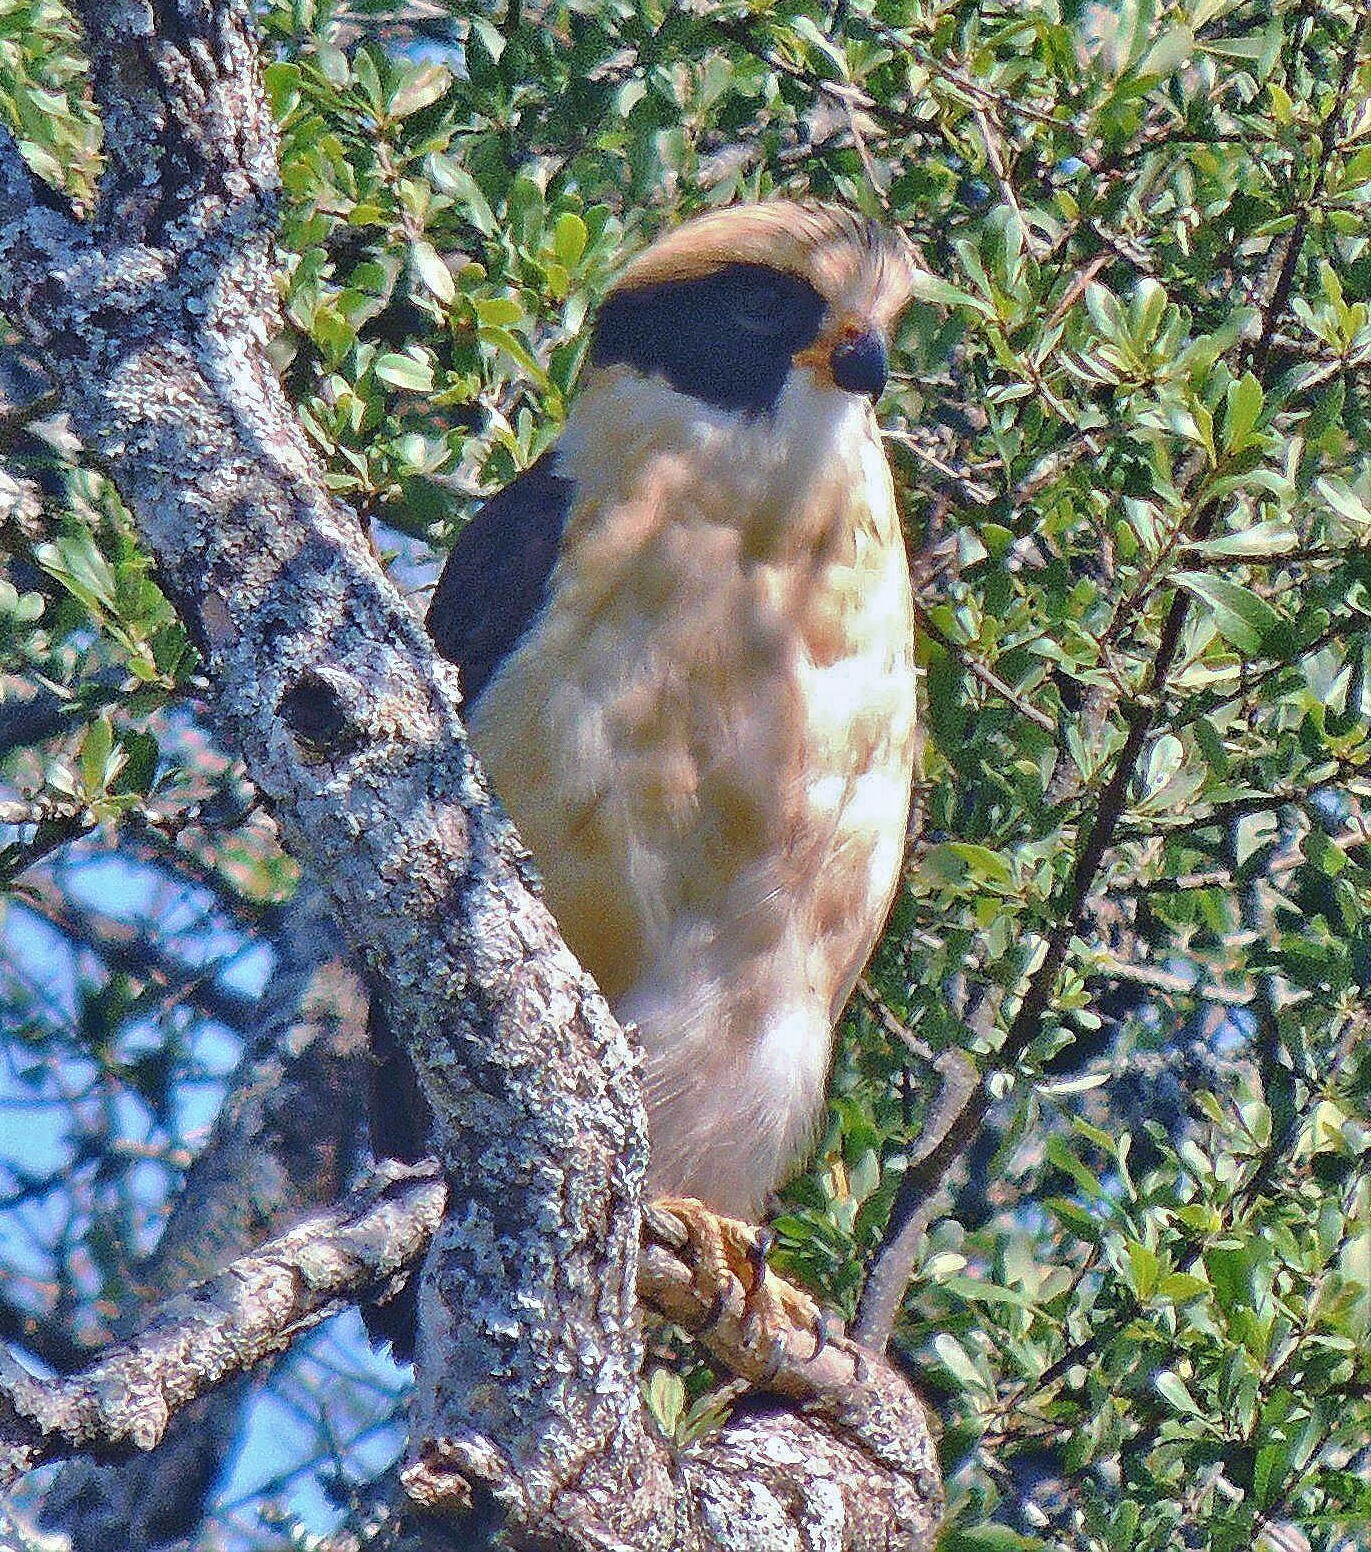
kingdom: Animalia
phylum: Chordata
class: Aves
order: Falconiformes
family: Falconidae
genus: Herpetotheres
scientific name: Herpetotheres cachinnans
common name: Laughing falcon
